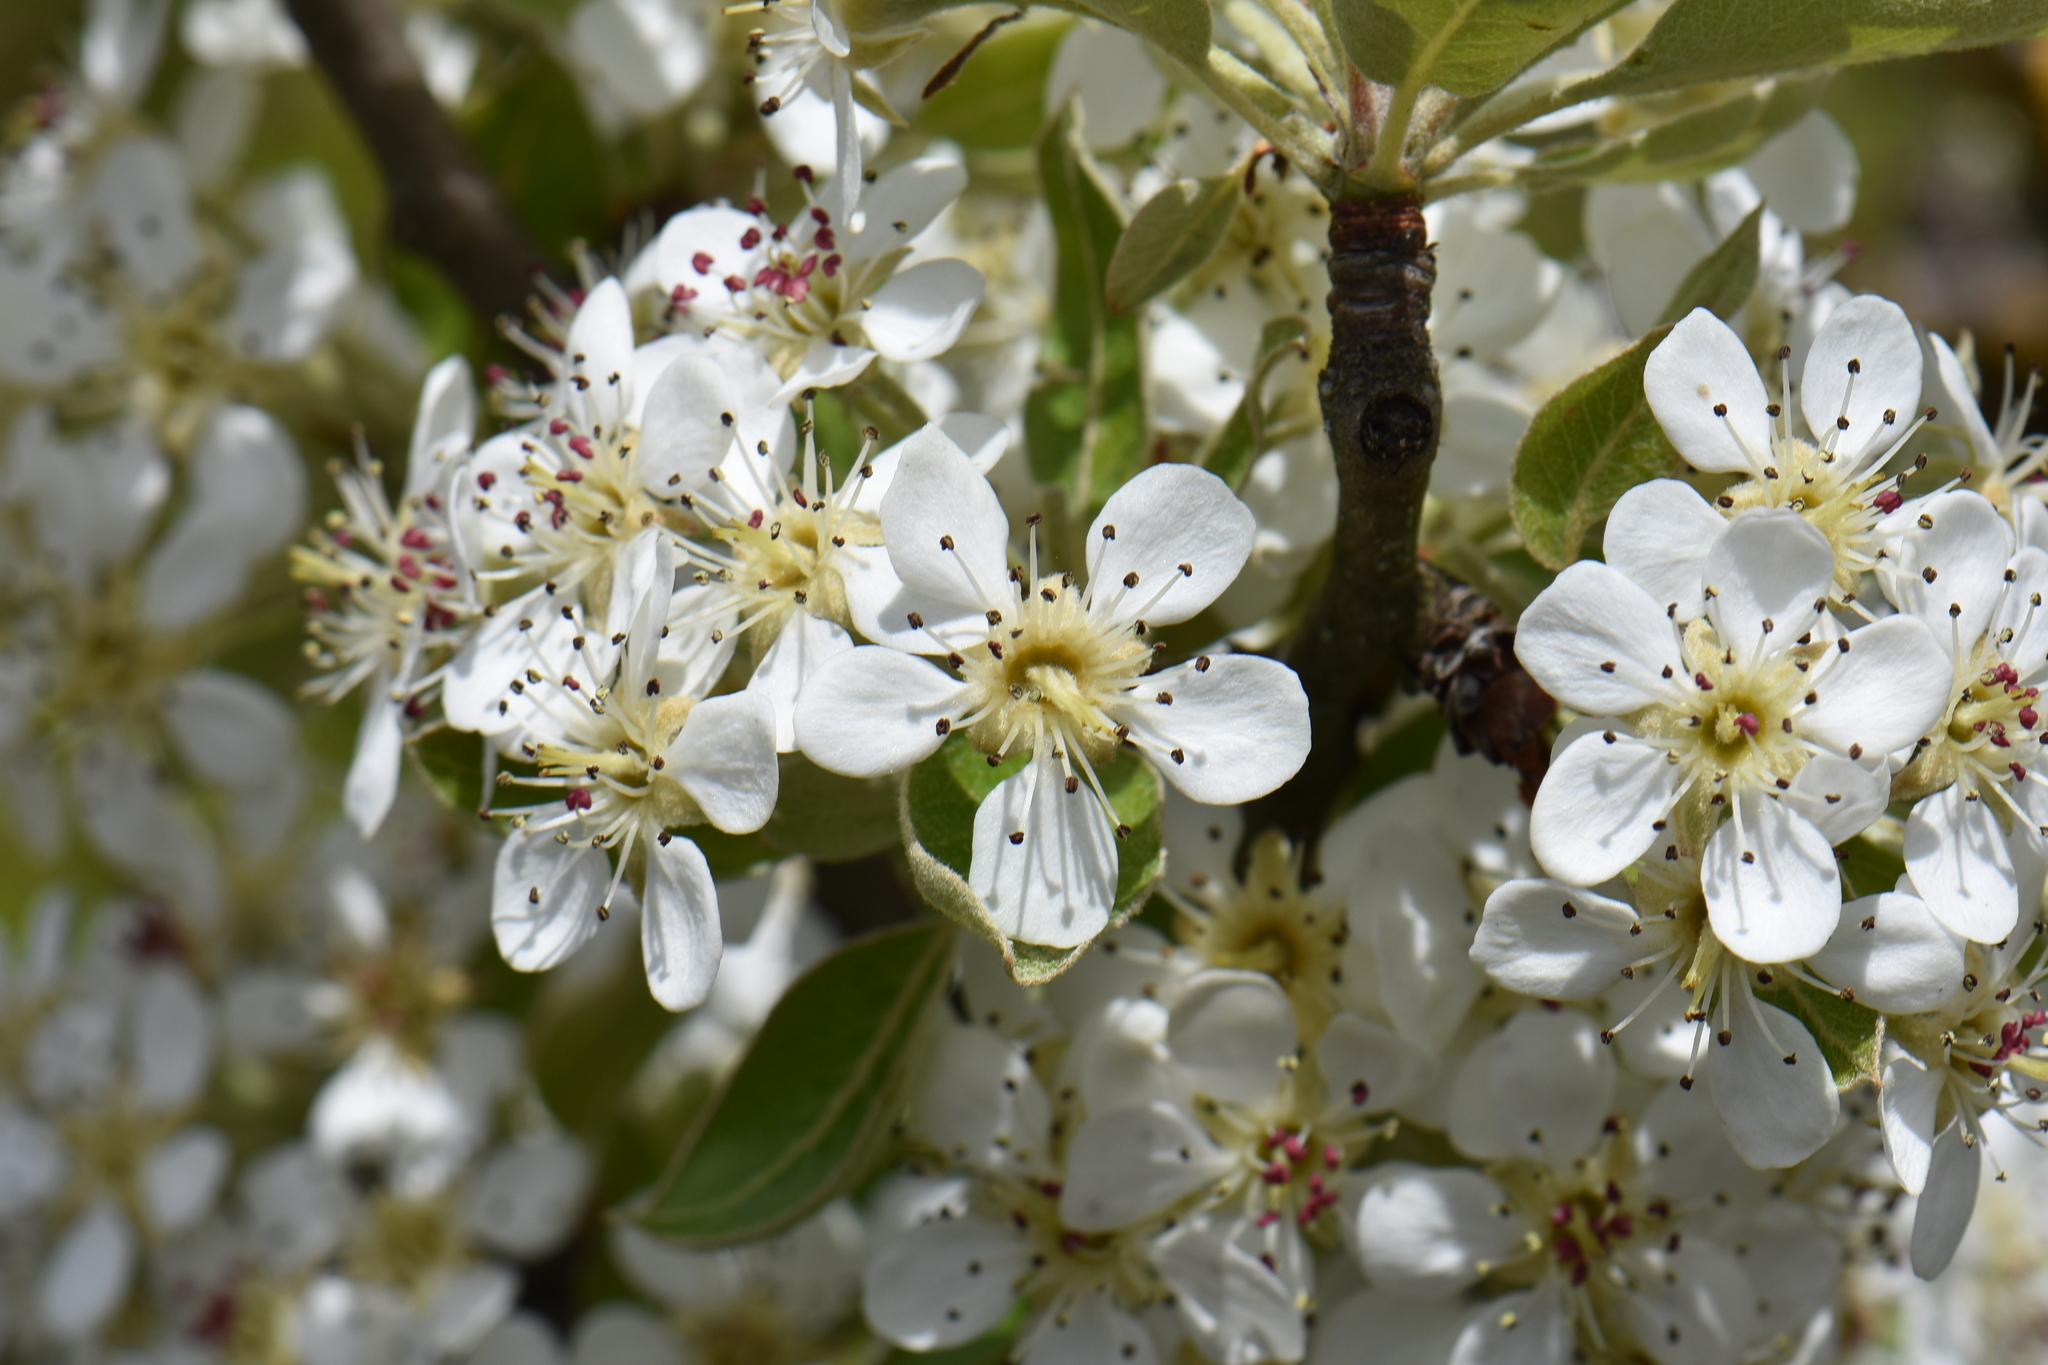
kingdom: Plantae
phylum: Tracheophyta
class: Magnoliopsida
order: Rosales
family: Rosaceae
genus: Pyrus
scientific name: Pyrus spinosa
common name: Almond-leaf pear
